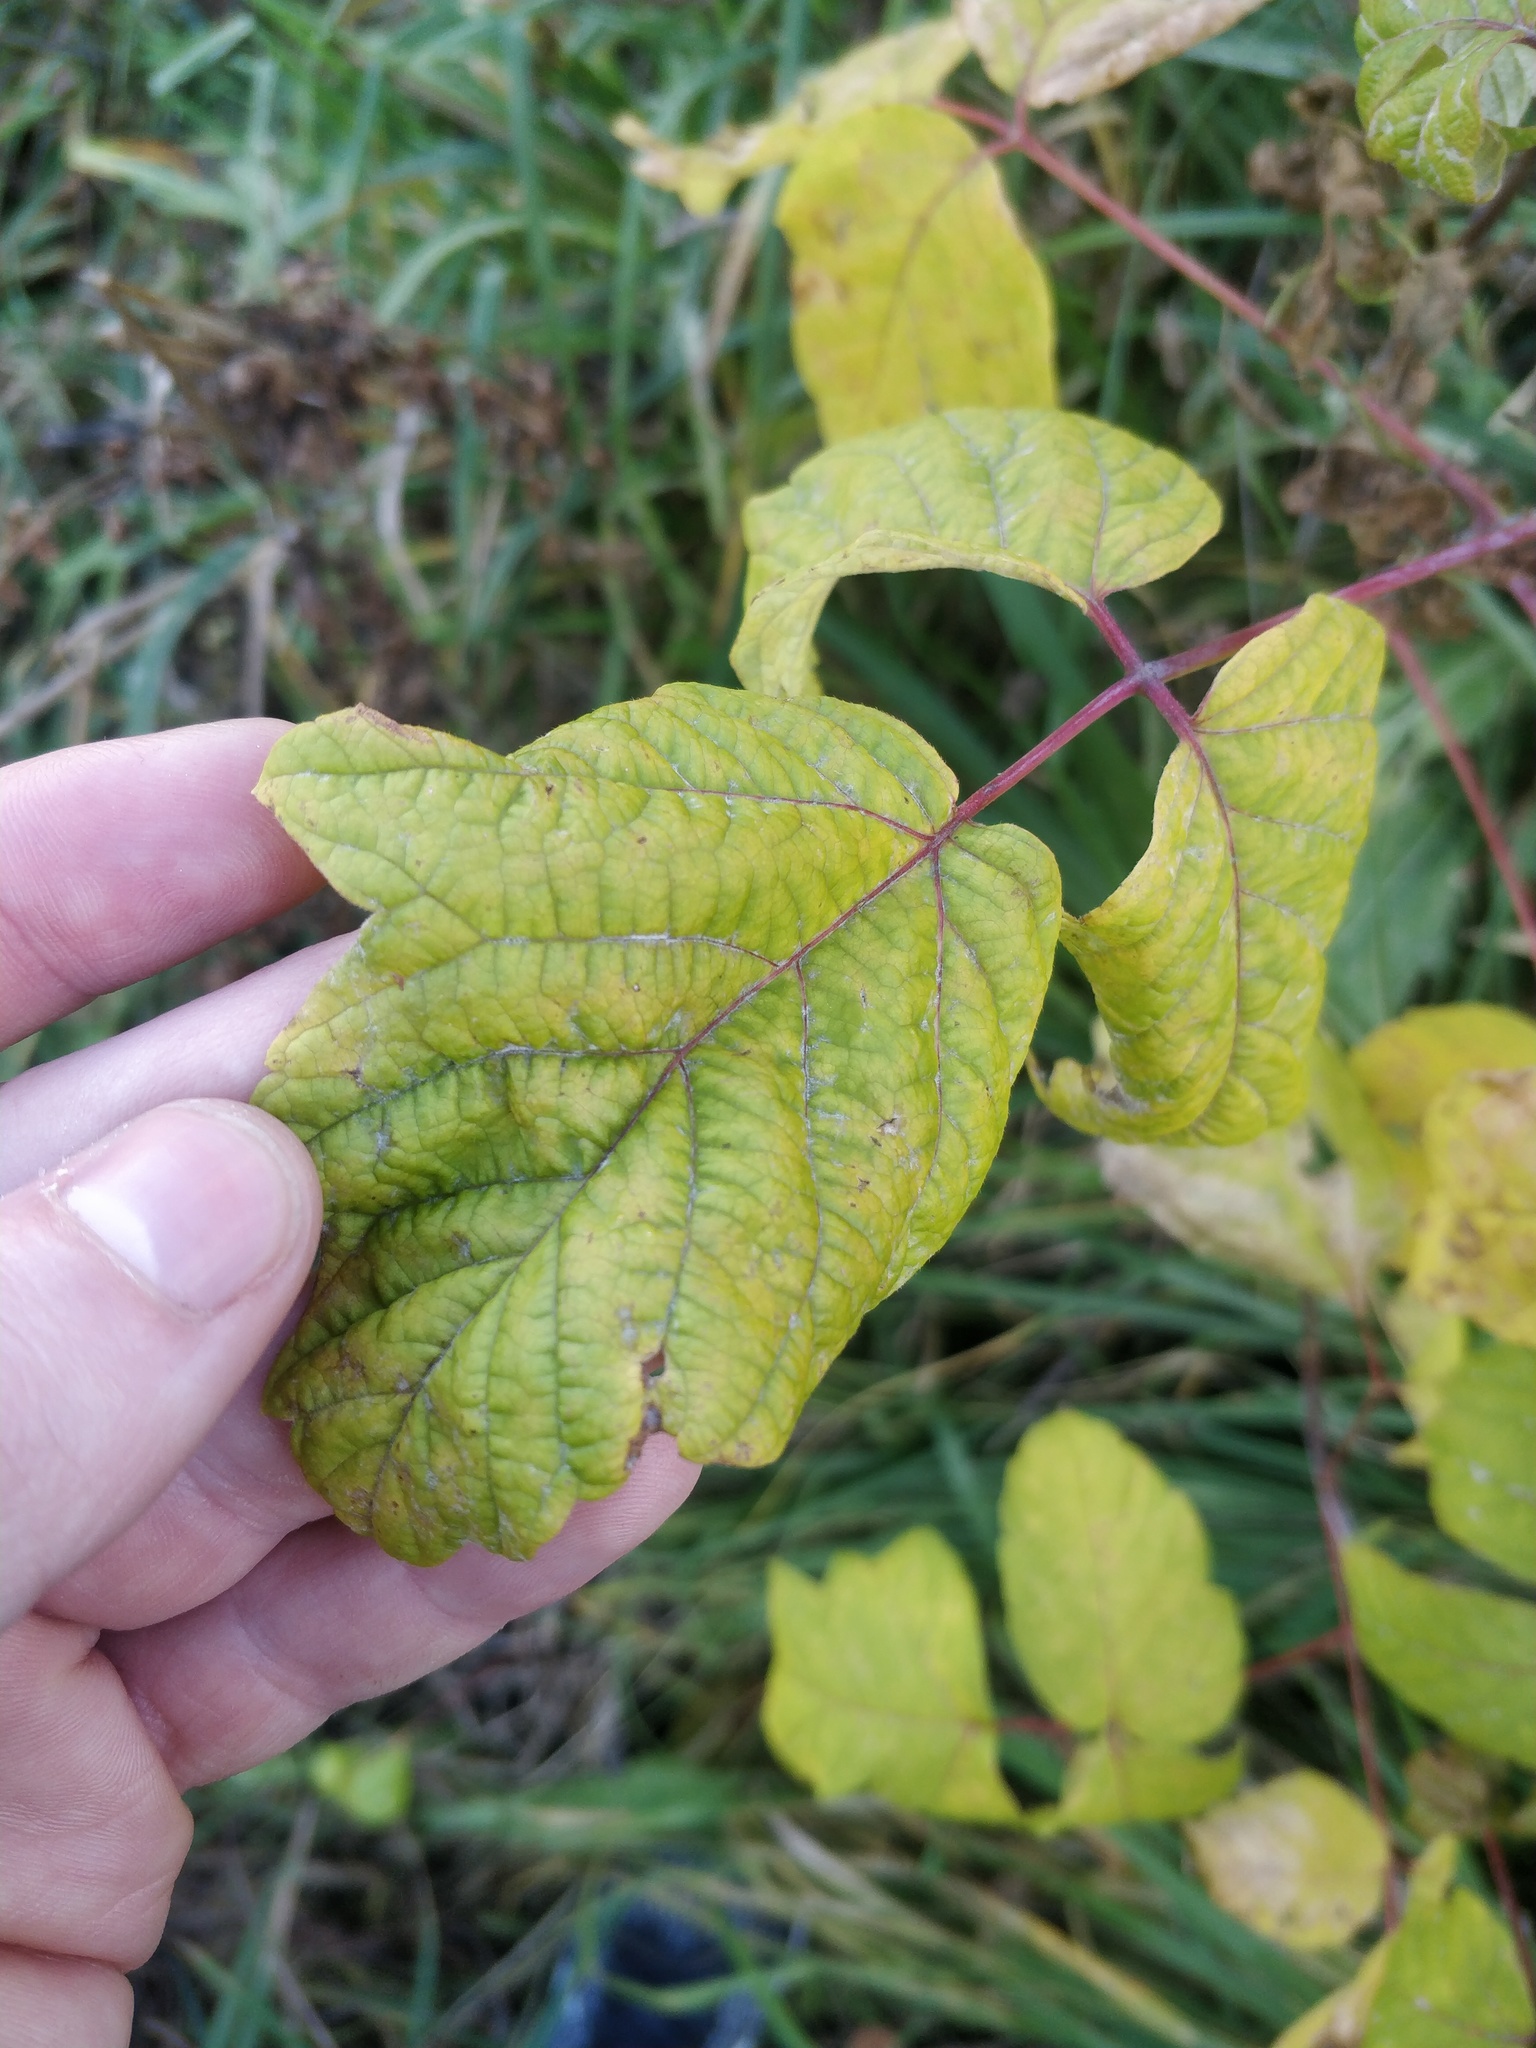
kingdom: Plantae
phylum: Tracheophyta
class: Magnoliopsida
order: Sapindales
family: Sapindaceae
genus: Acer
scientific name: Acer negundo
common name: Ashleaf maple
